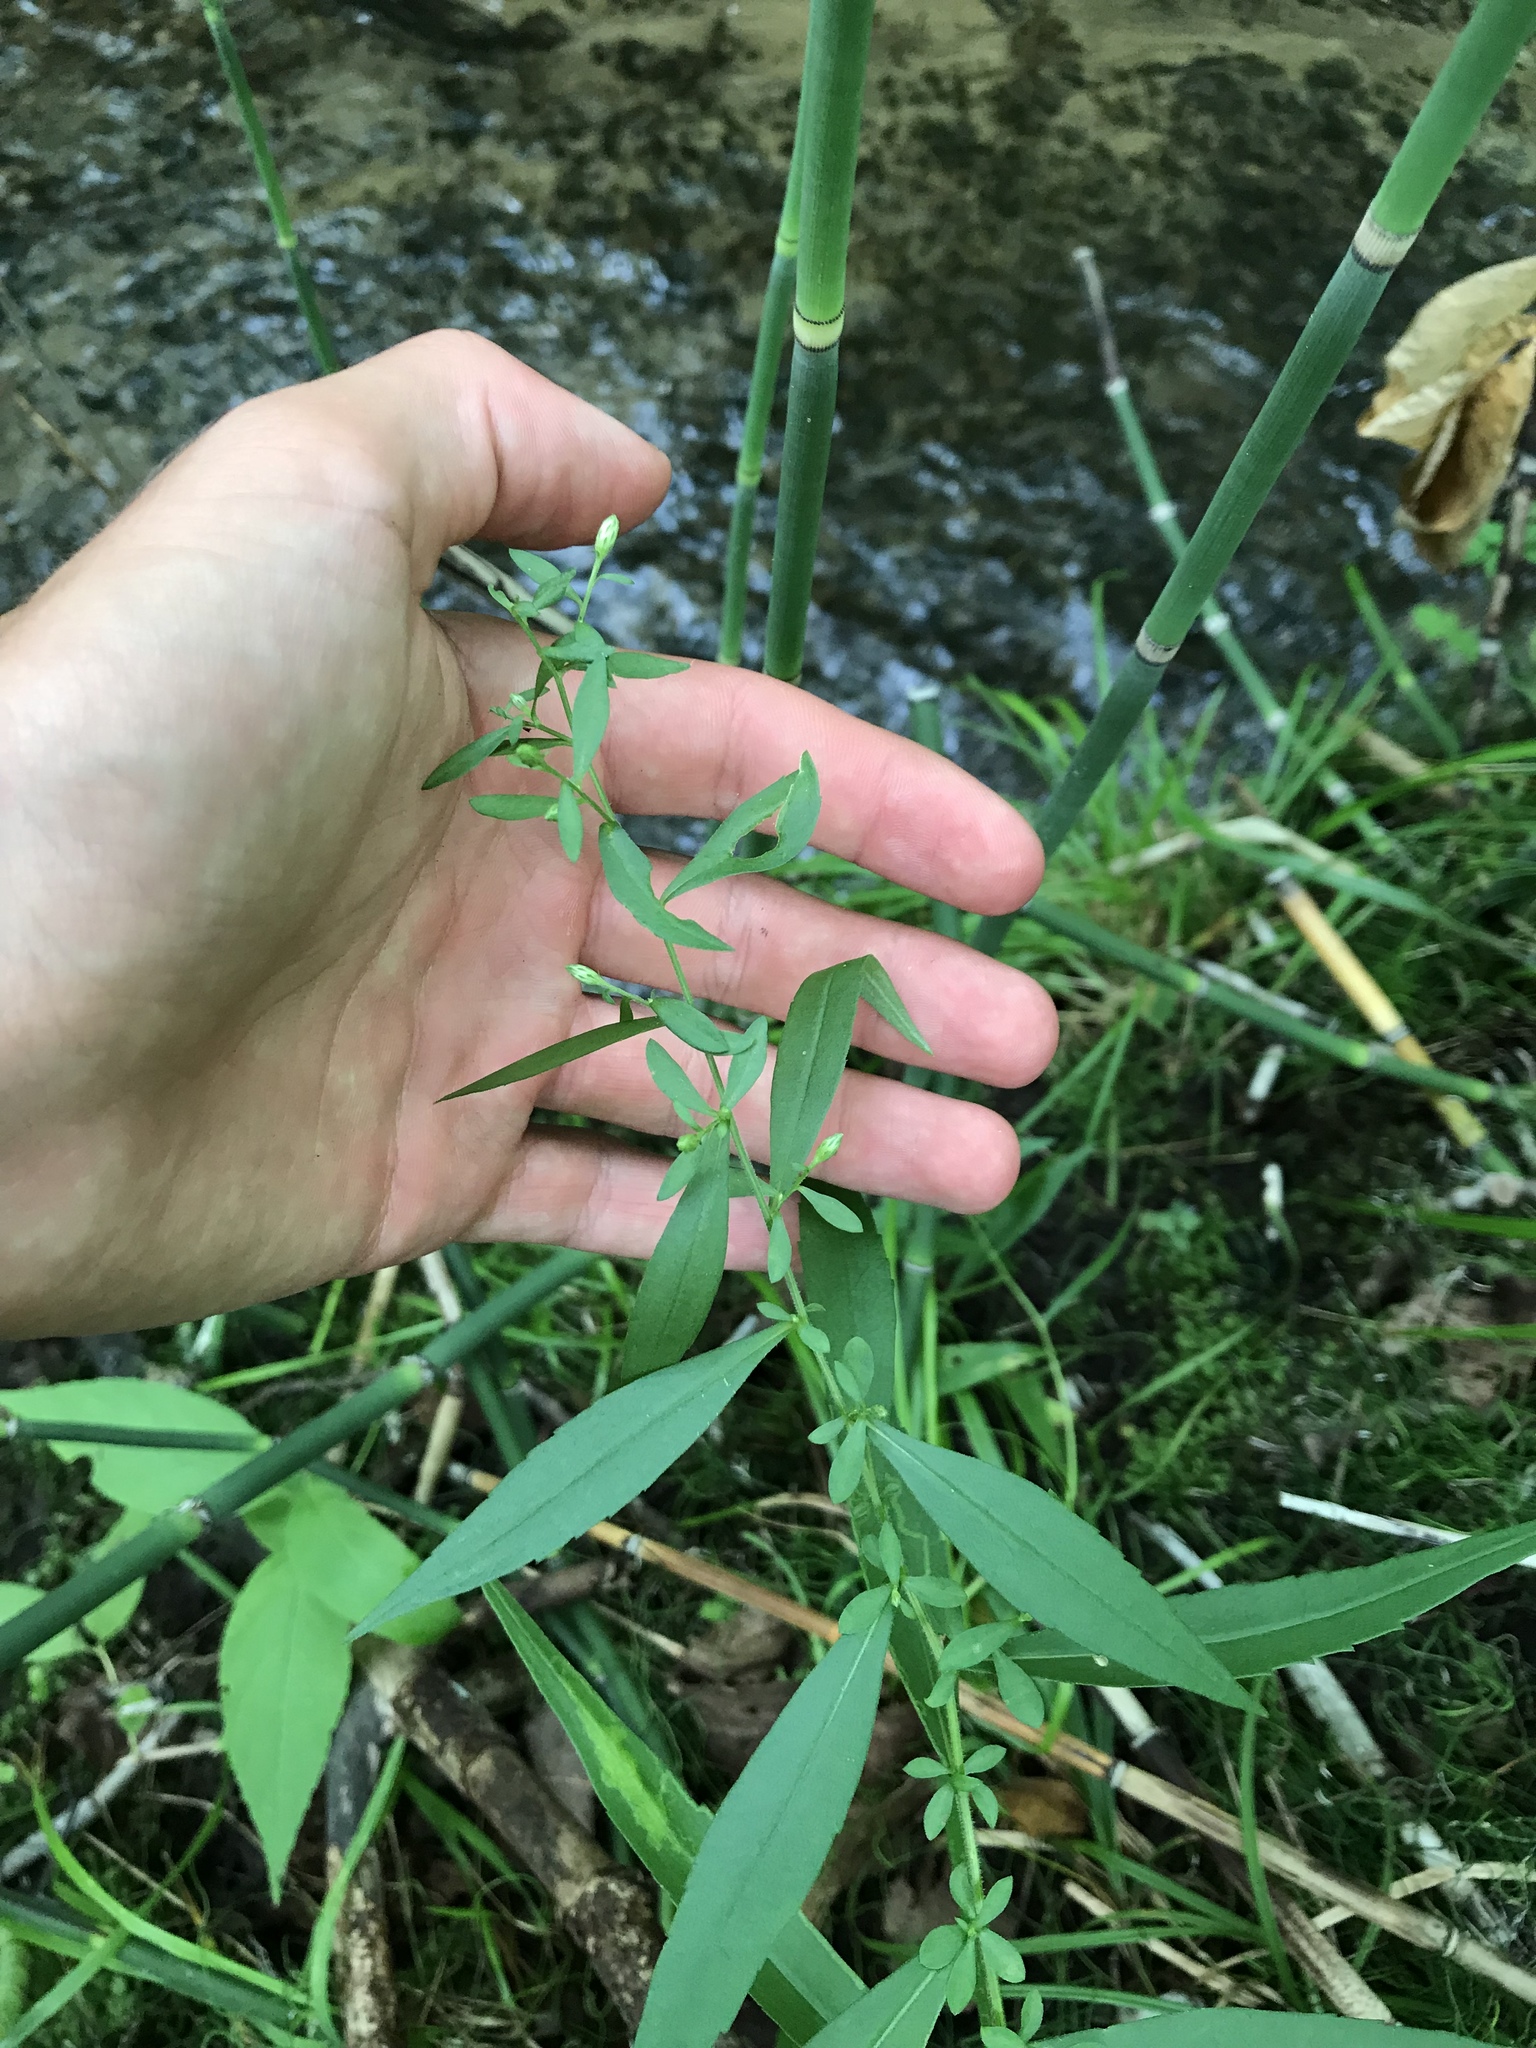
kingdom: Plantae
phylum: Tracheophyta
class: Magnoliopsida
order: Asterales
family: Asteraceae
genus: Symphyotrichum
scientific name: Symphyotrichum lateriflorum
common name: Calico aster
